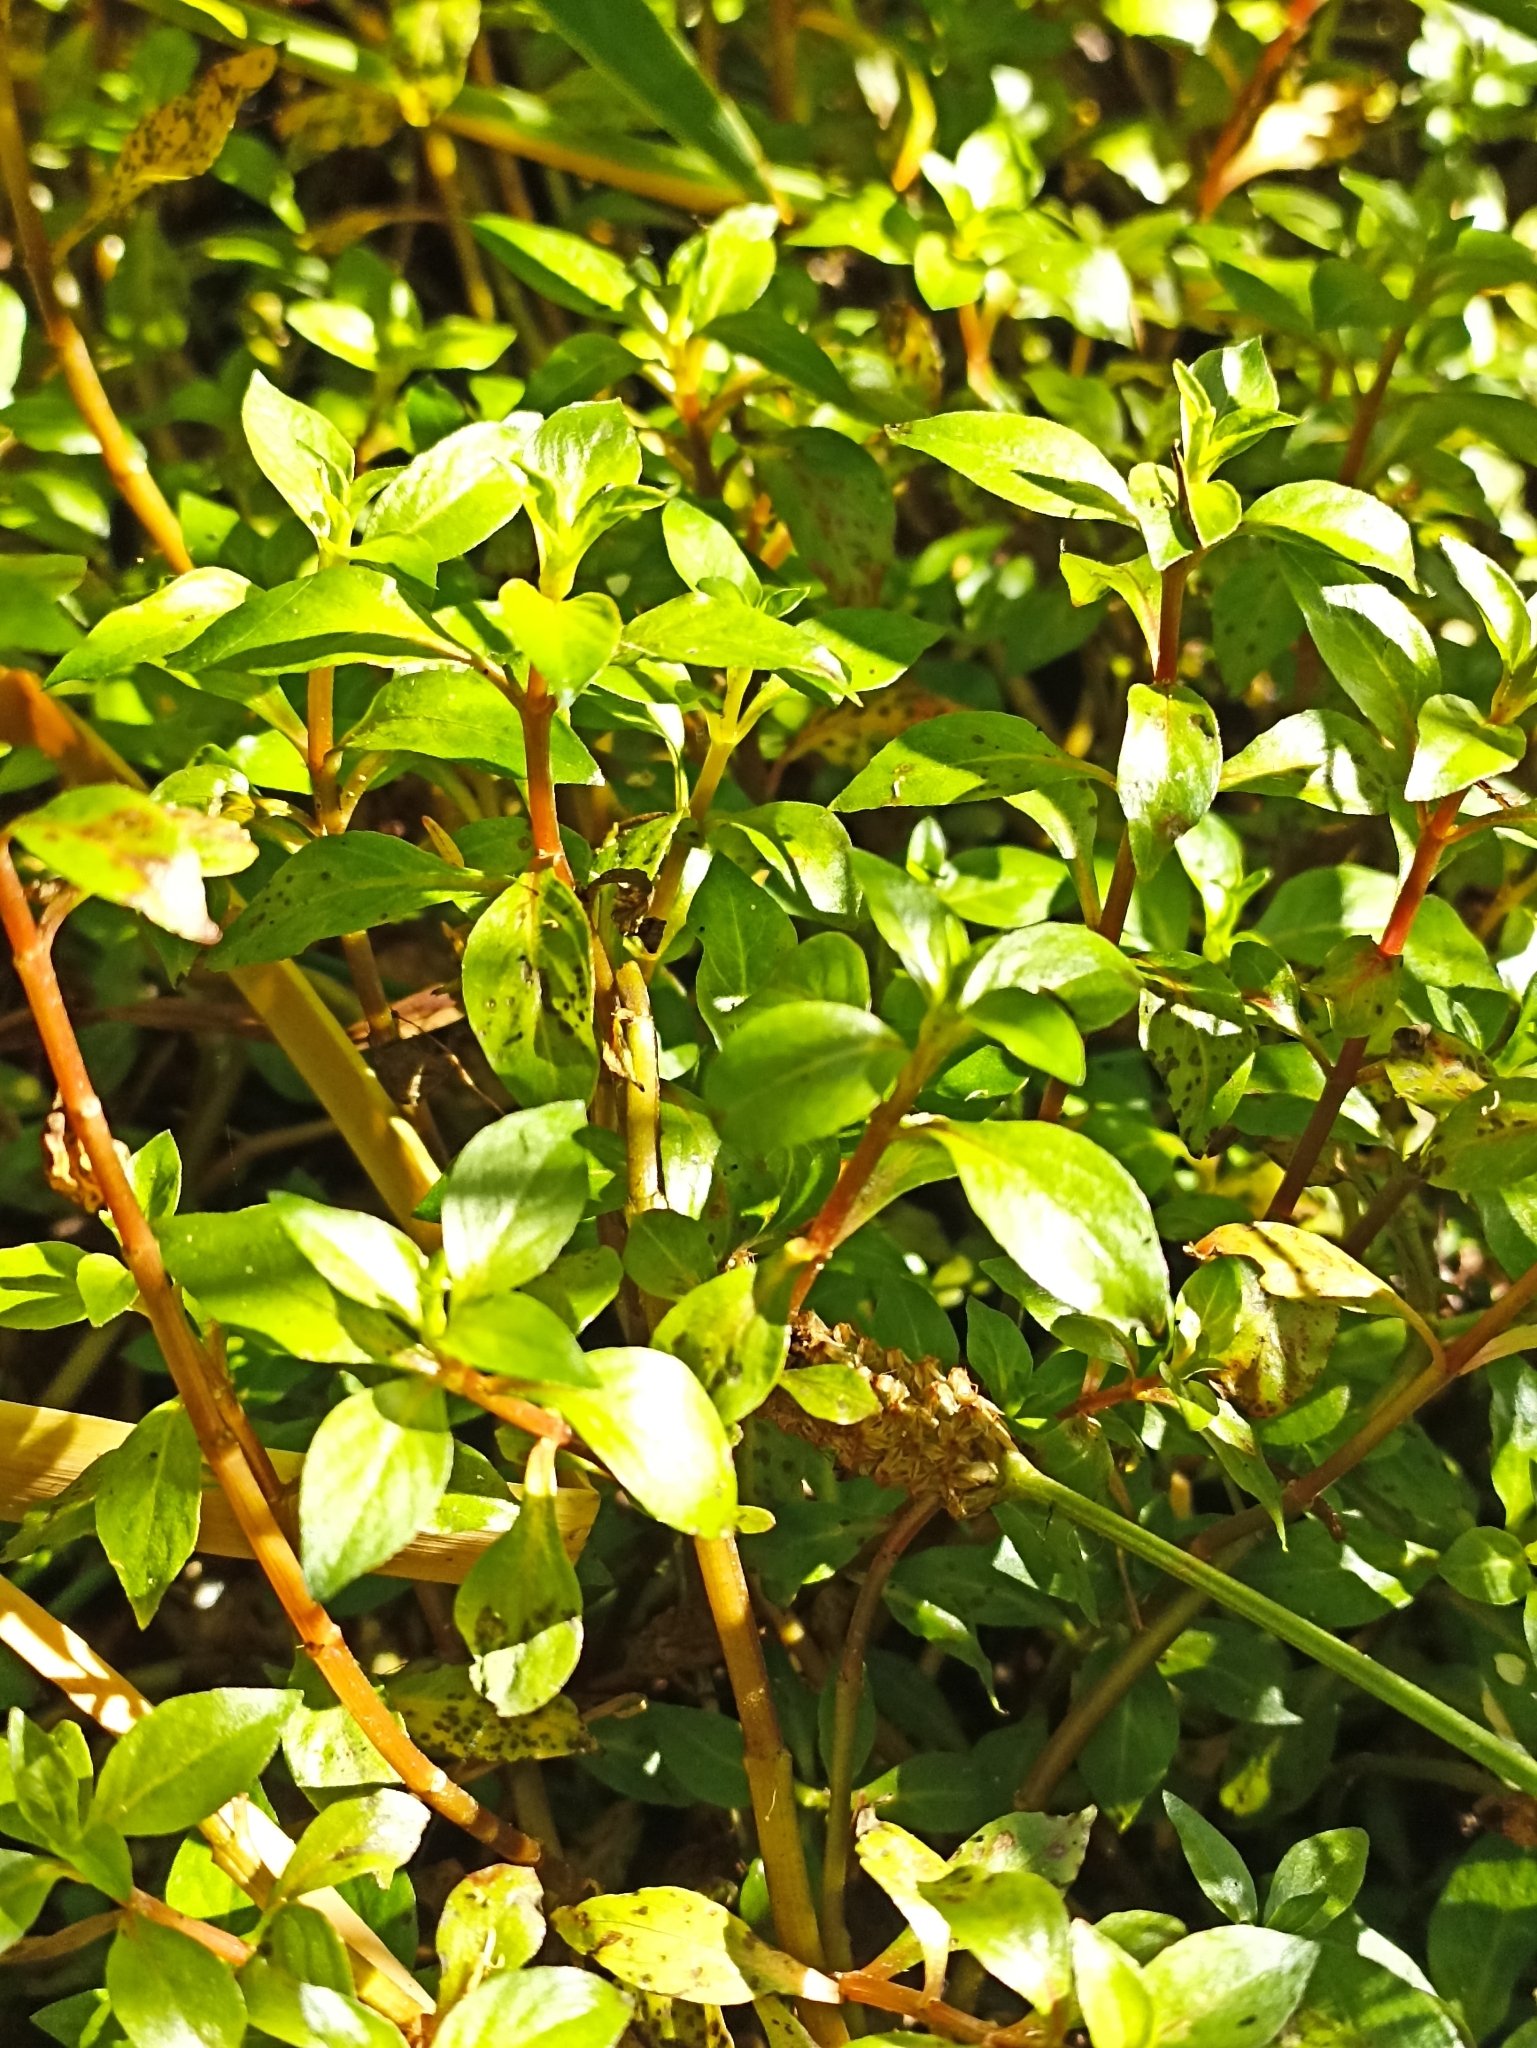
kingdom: Plantae
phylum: Tracheophyta
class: Magnoliopsida
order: Myrtales
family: Onagraceae
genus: Ludwigia
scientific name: Ludwigia palustris
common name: Hampshire-purslane
